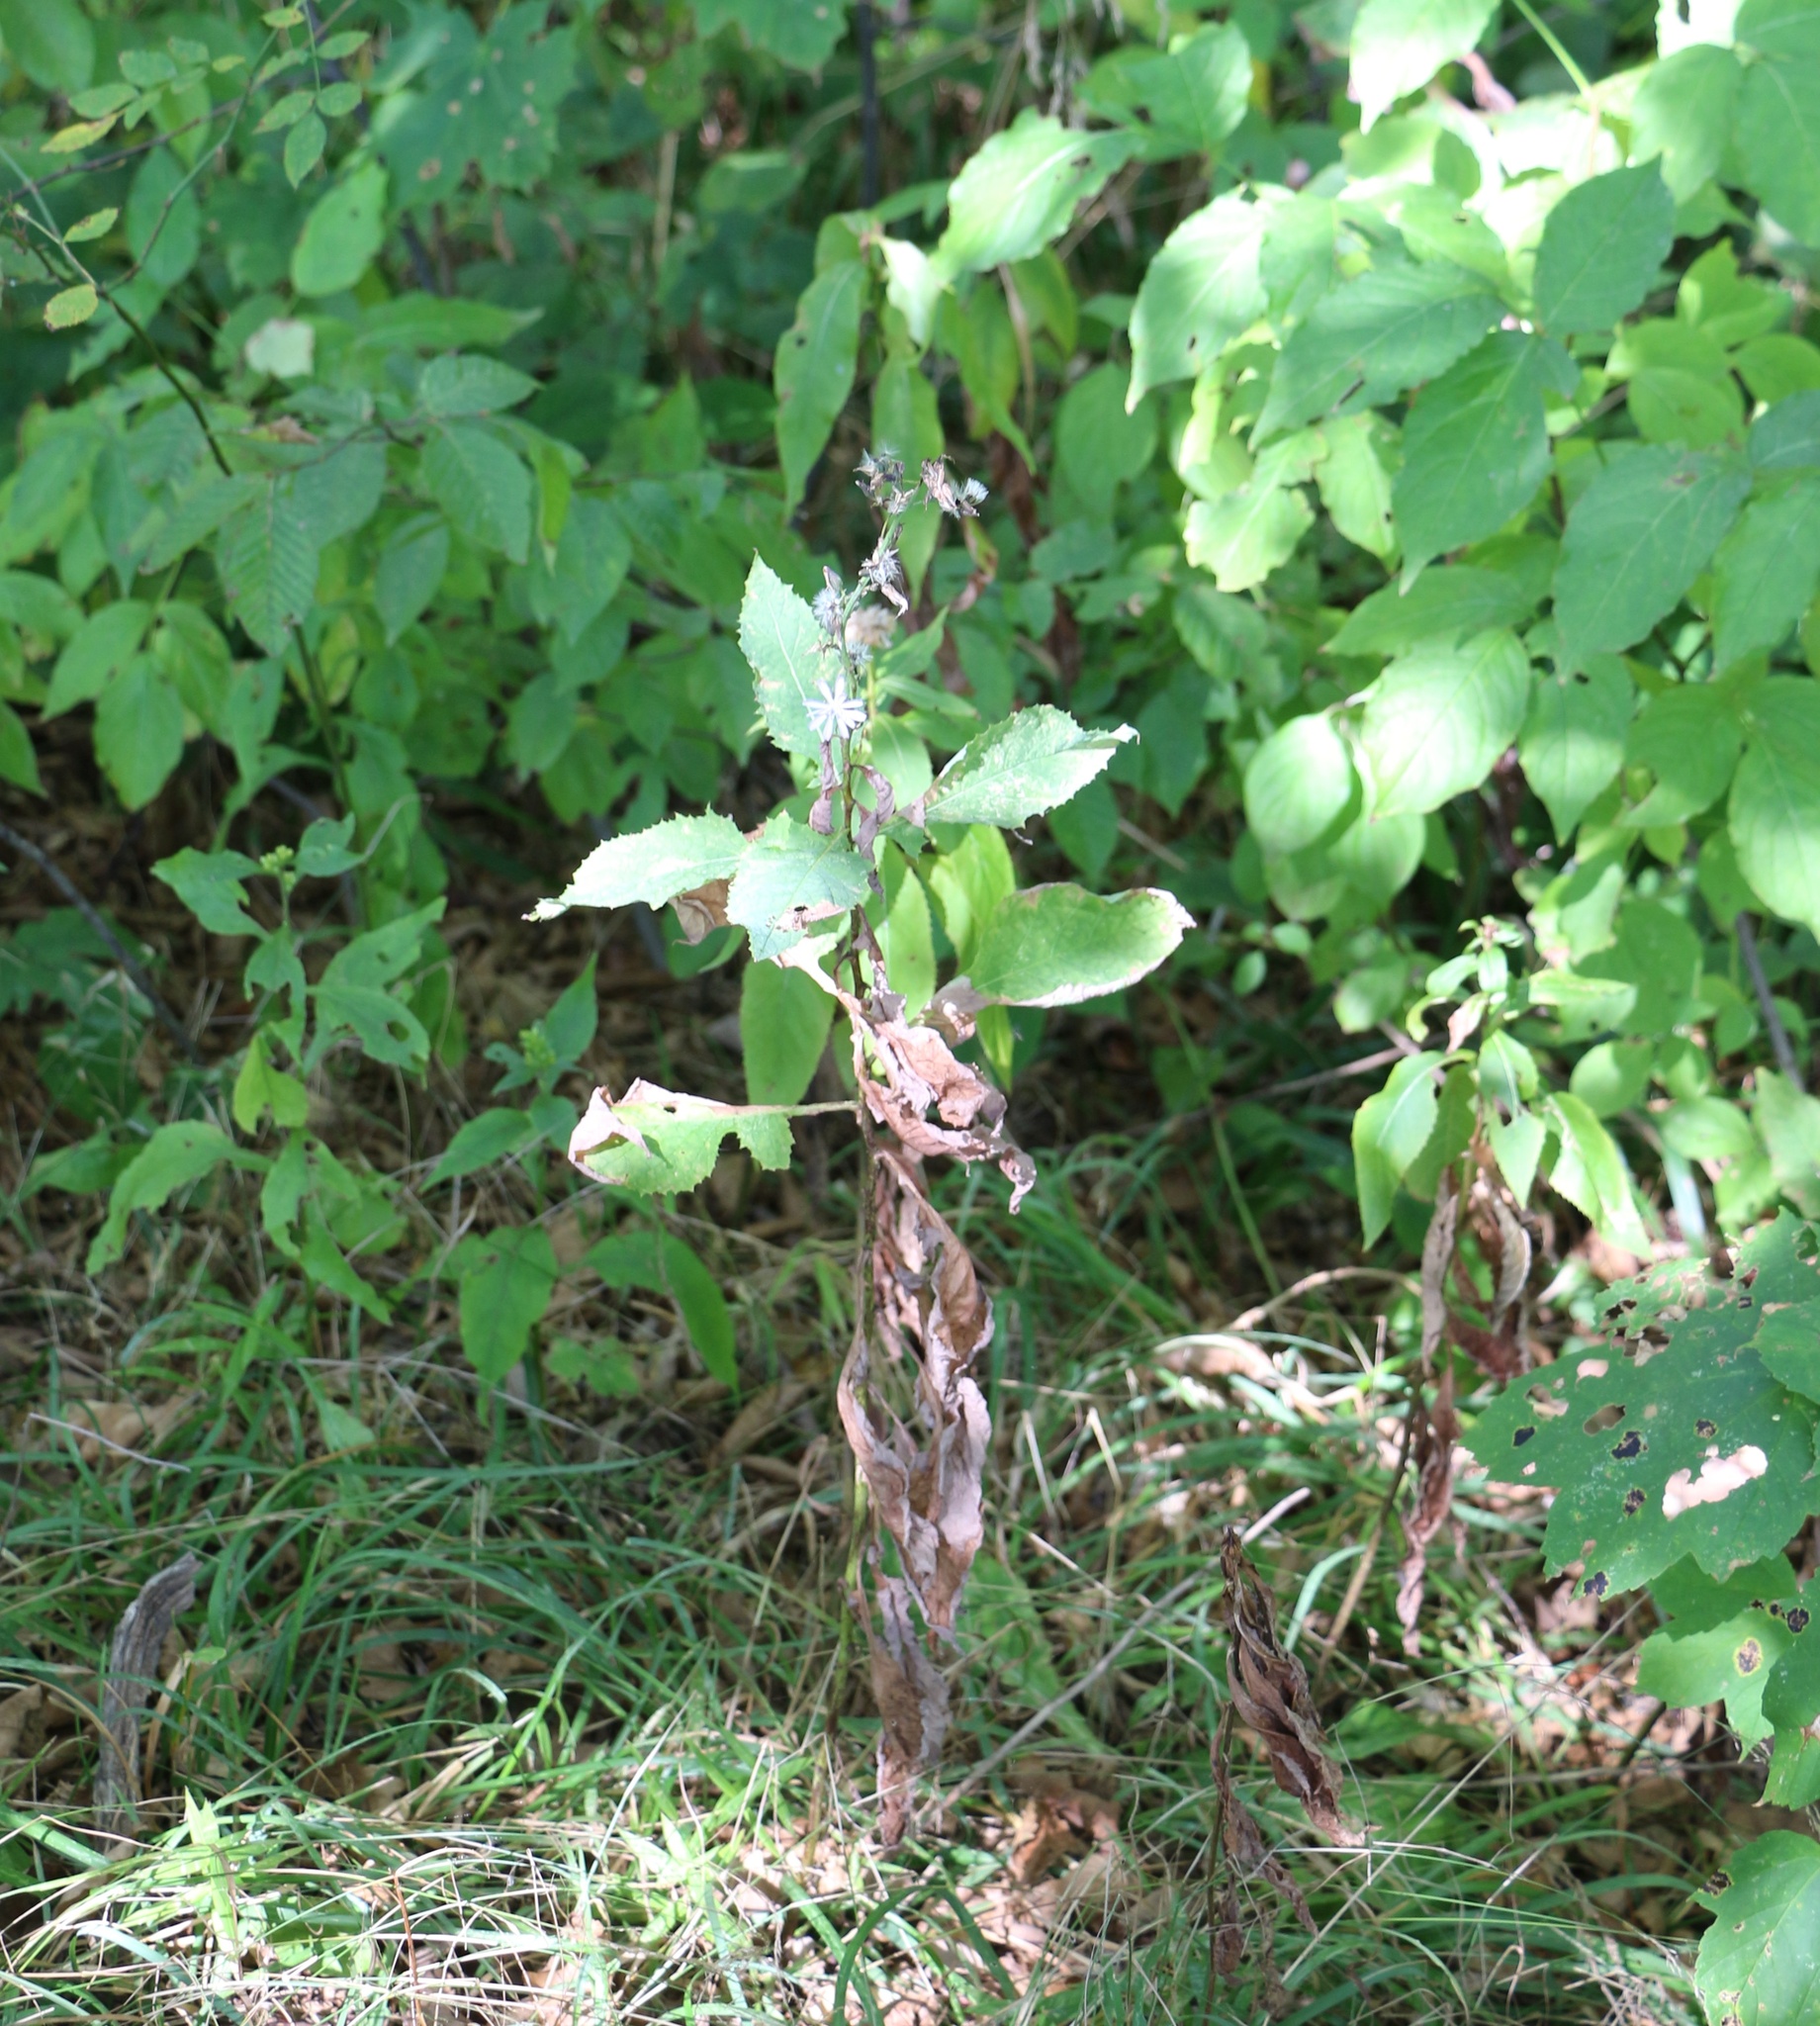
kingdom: Plantae
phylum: Tracheophyta
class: Magnoliopsida
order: Asterales
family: Asteraceae
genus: Cicerbita
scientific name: Cicerbita prenanthoides
